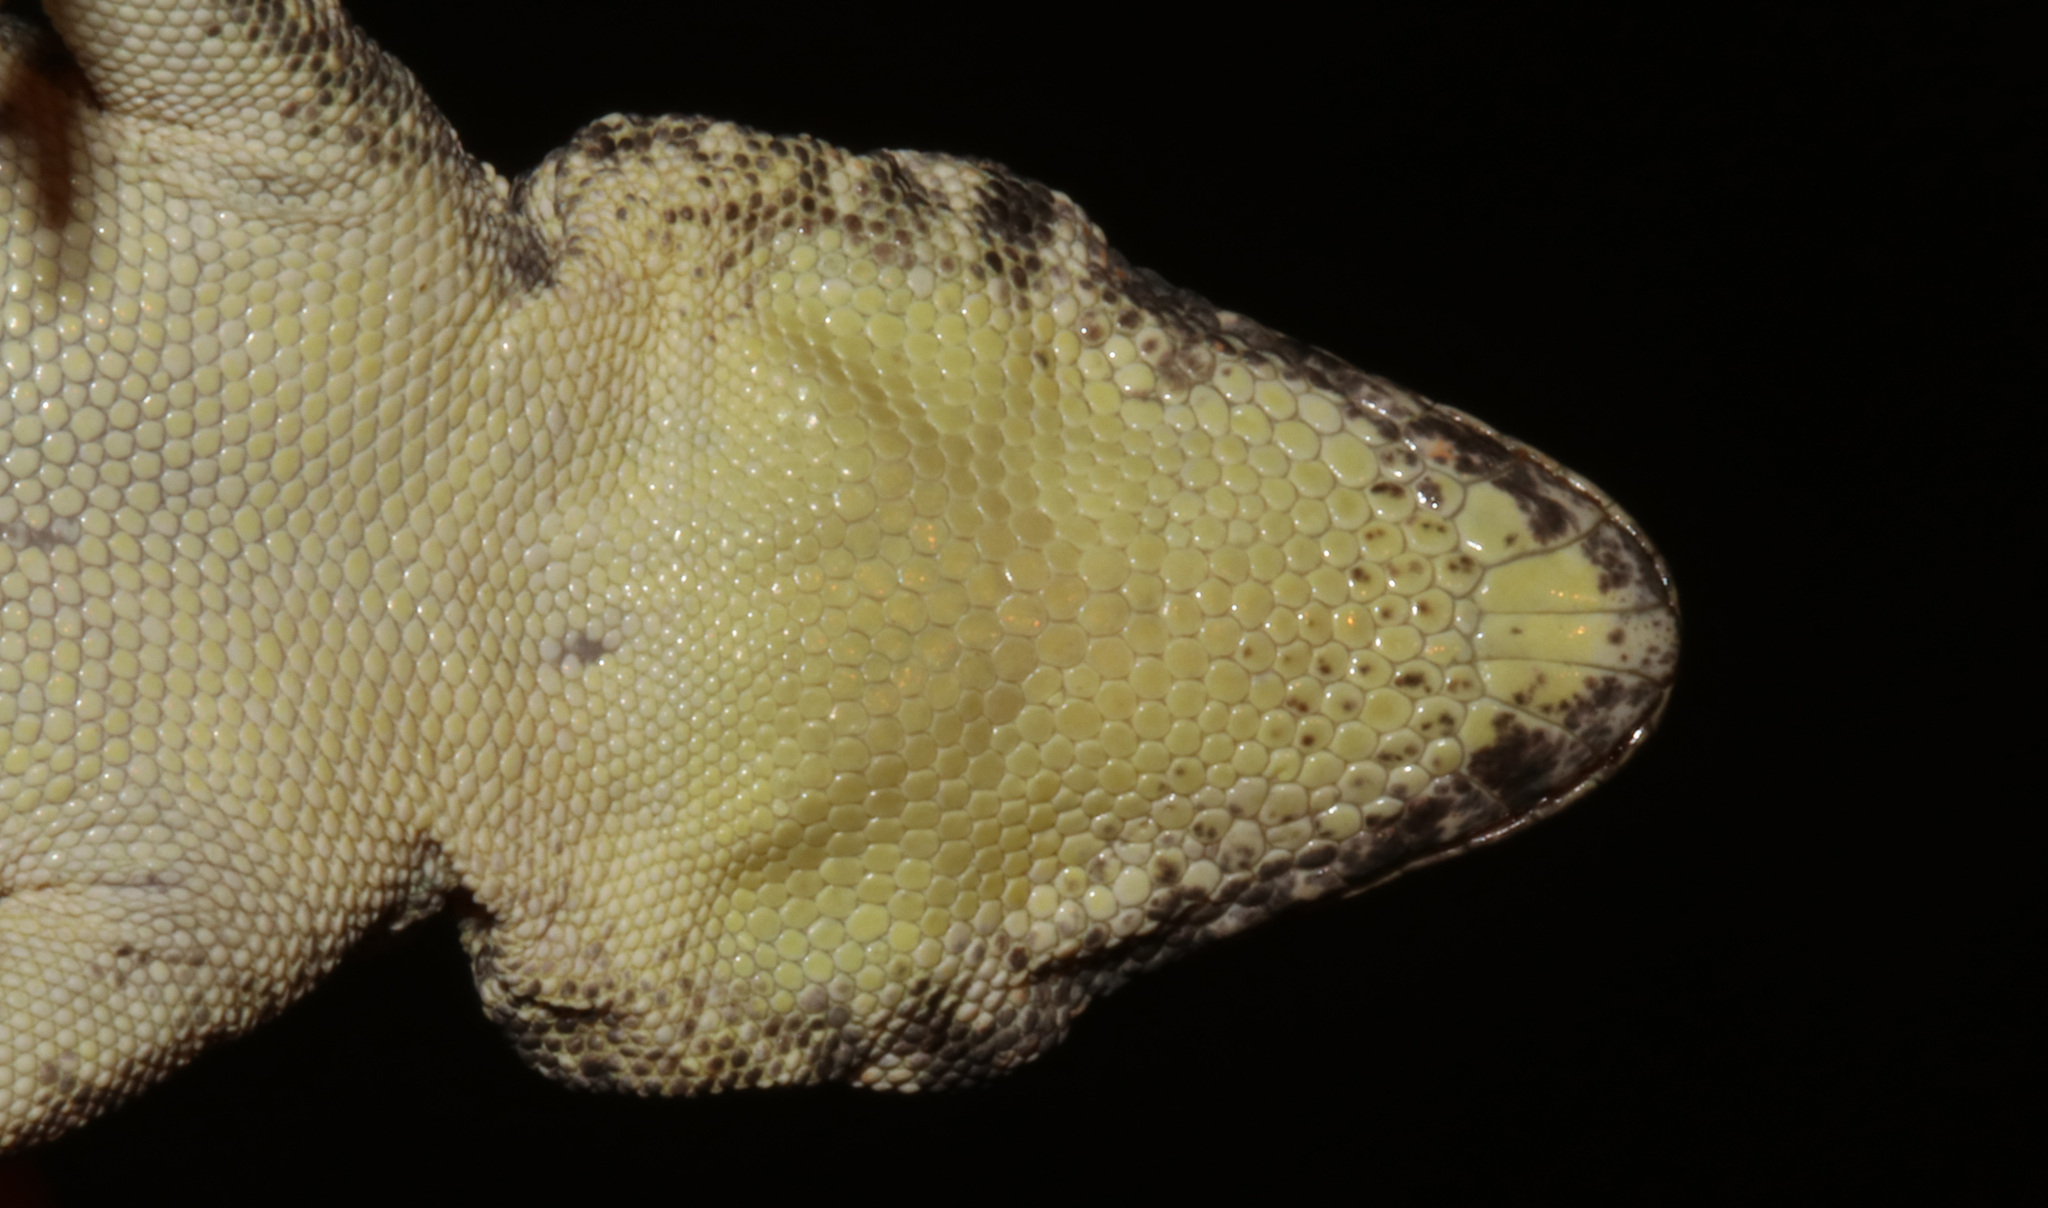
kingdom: Animalia
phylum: Chordata
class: Squamata
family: Gekkonidae
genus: Rhoptropus
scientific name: Rhoptropus afer
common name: Namib day gecko
